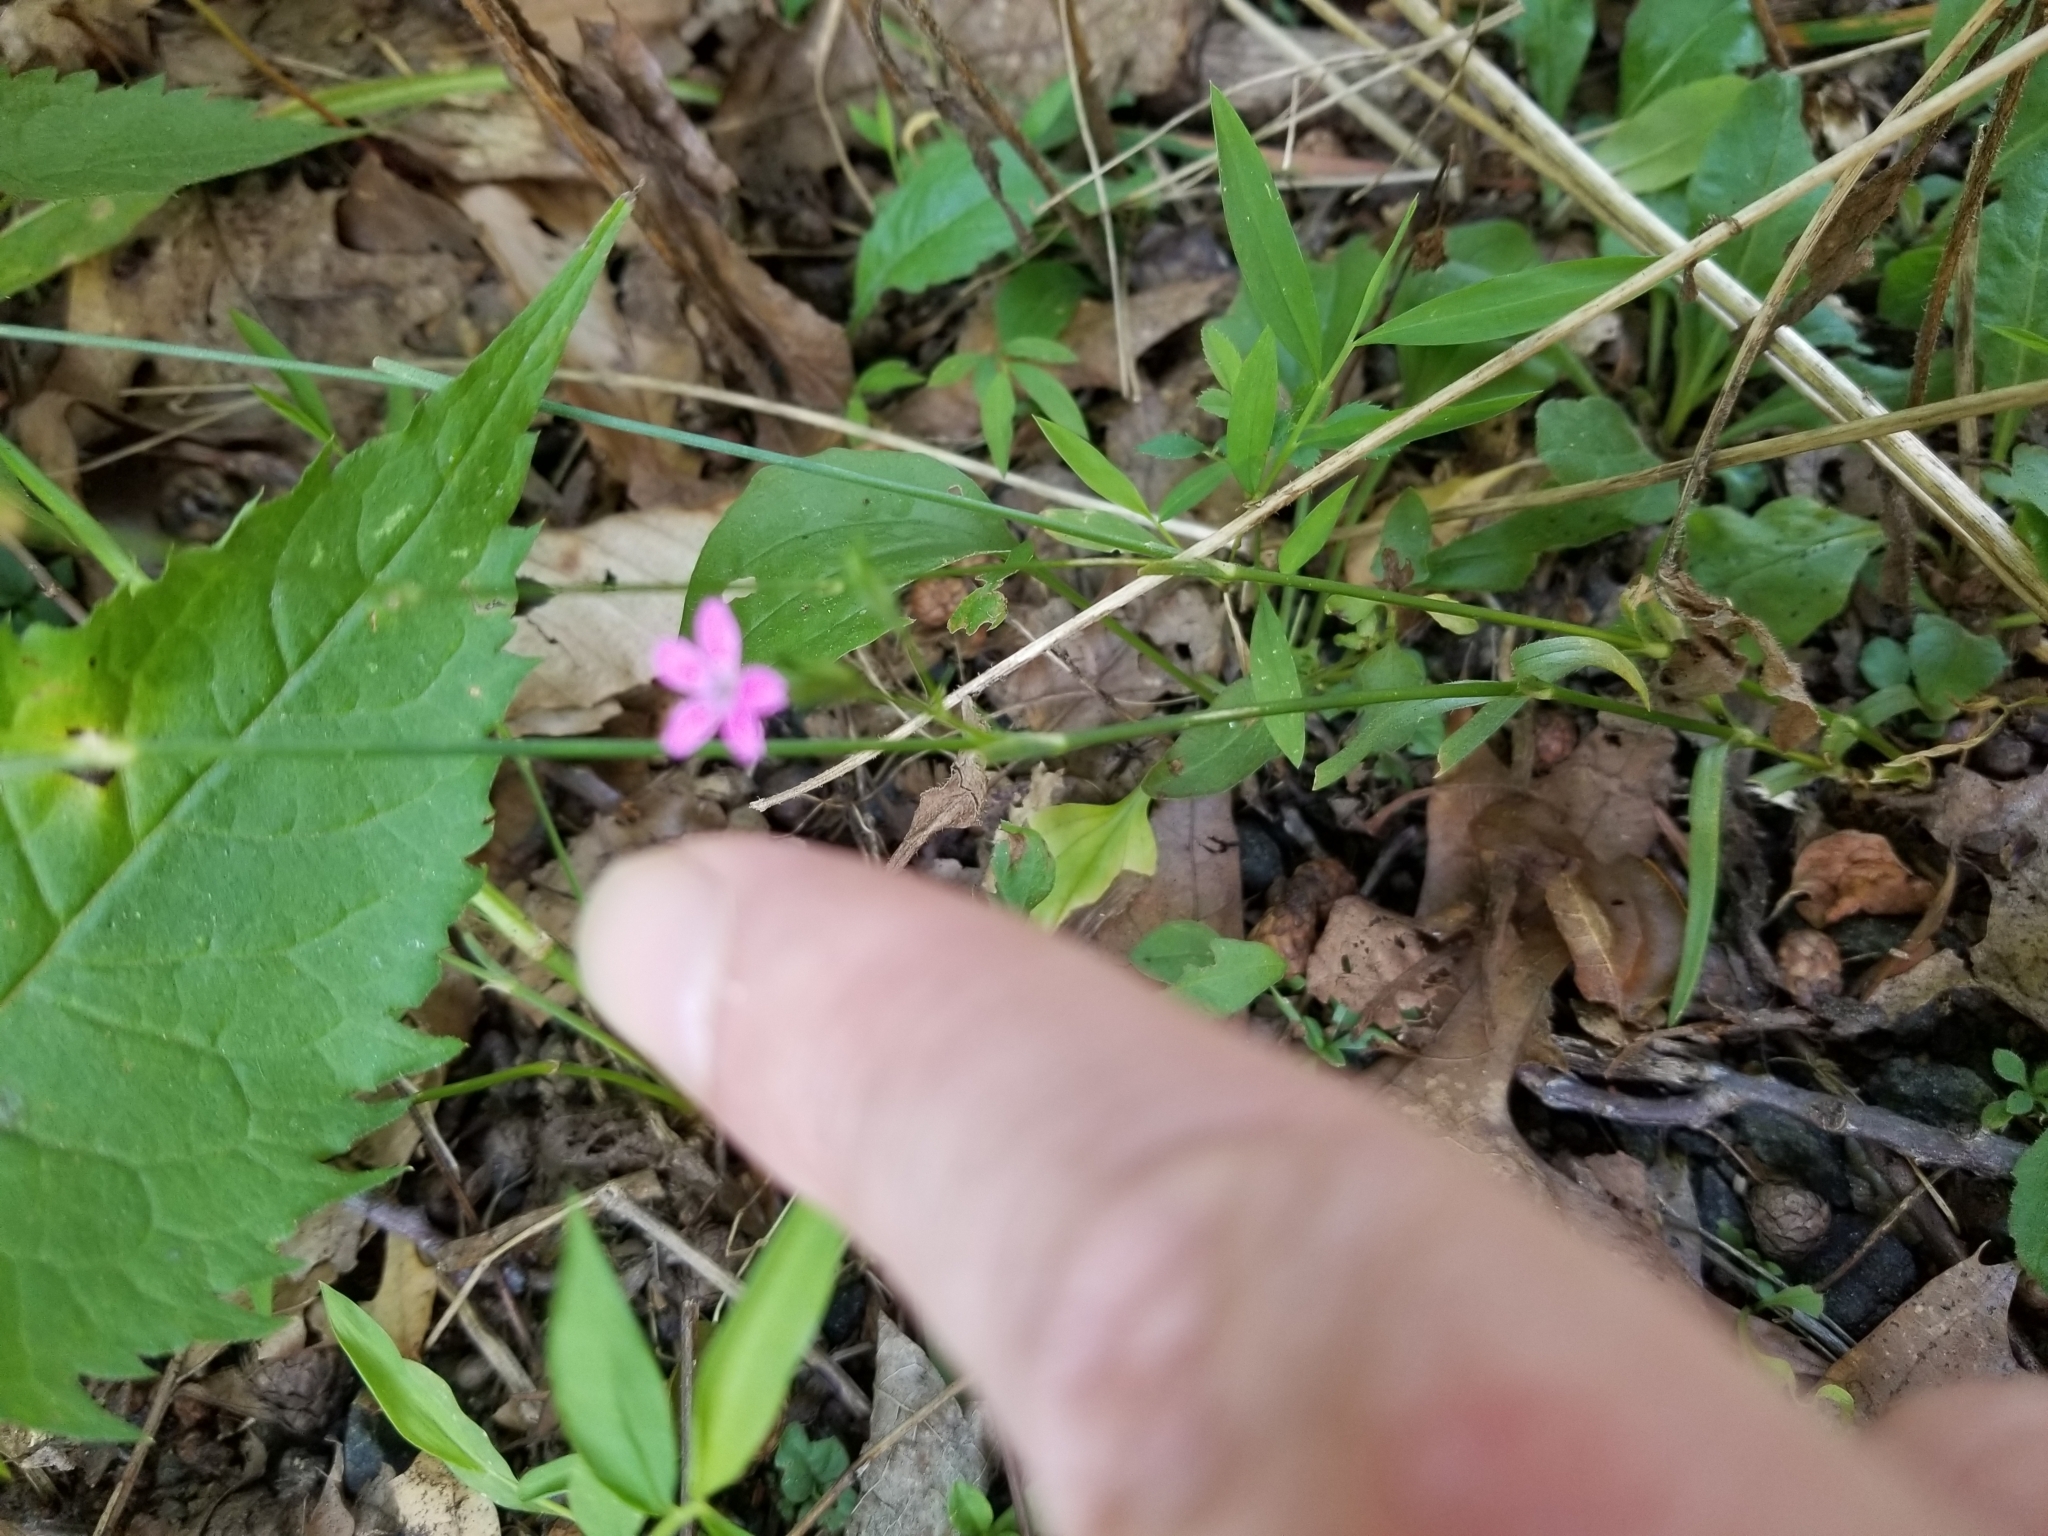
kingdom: Plantae
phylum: Tracheophyta
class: Magnoliopsida
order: Caryophyllales
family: Caryophyllaceae
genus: Dianthus
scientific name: Dianthus armeria
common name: Deptford pink
